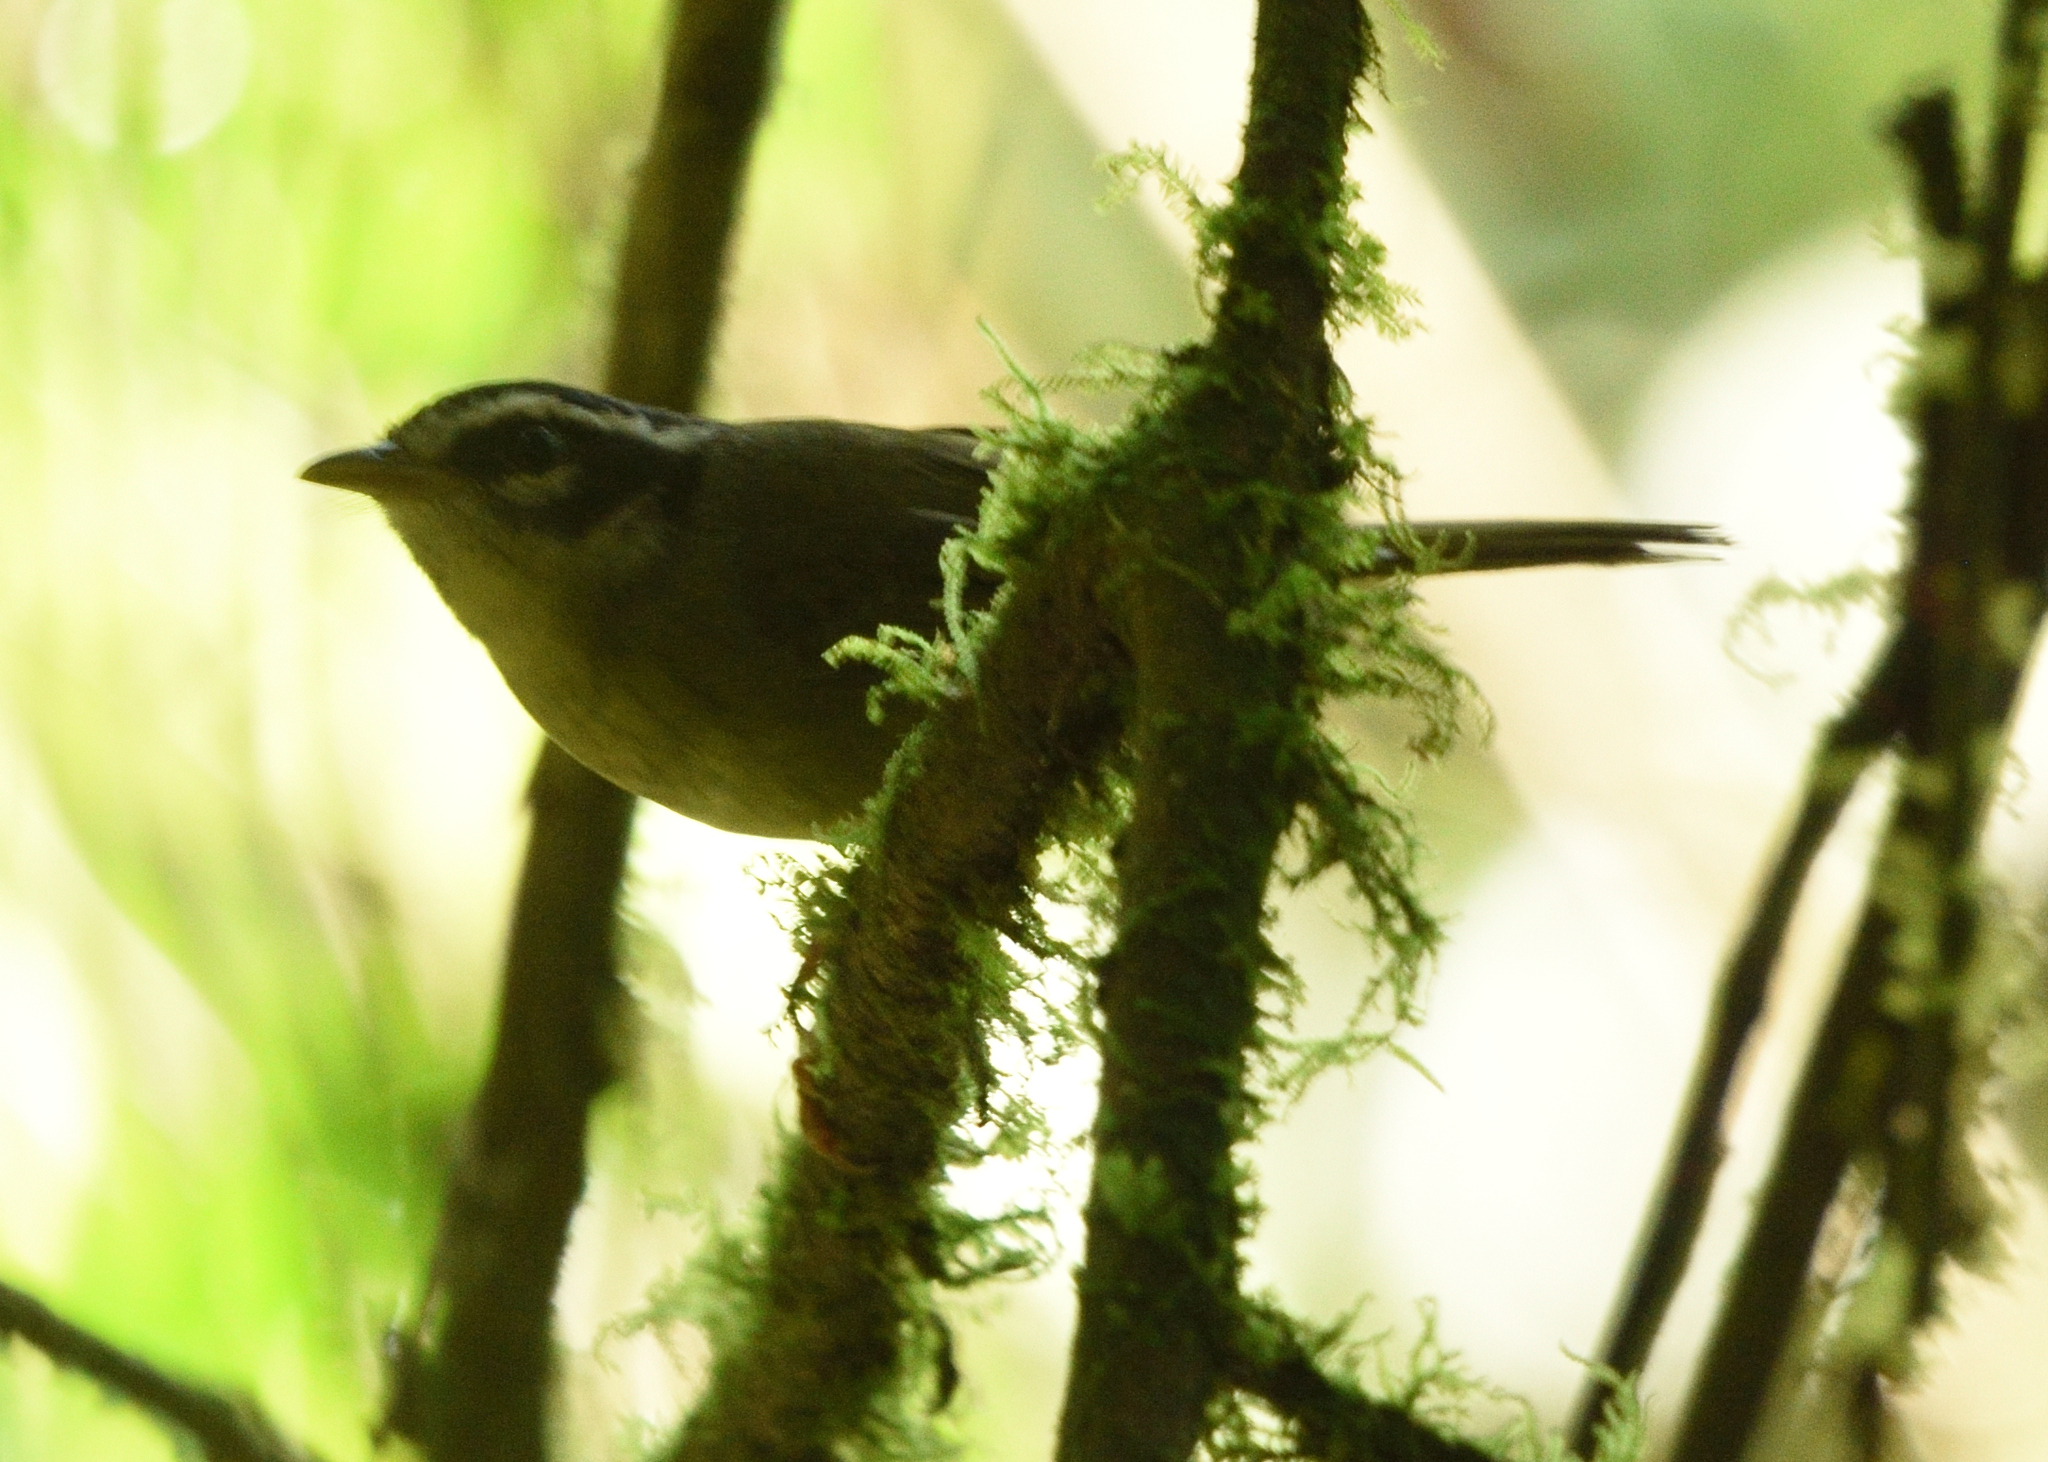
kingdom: Animalia
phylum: Chordata
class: Aves
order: Passeriformes
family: Parulidae
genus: Basileuterus
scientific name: Basileuterus tristriatus
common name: Three-striped warbler
